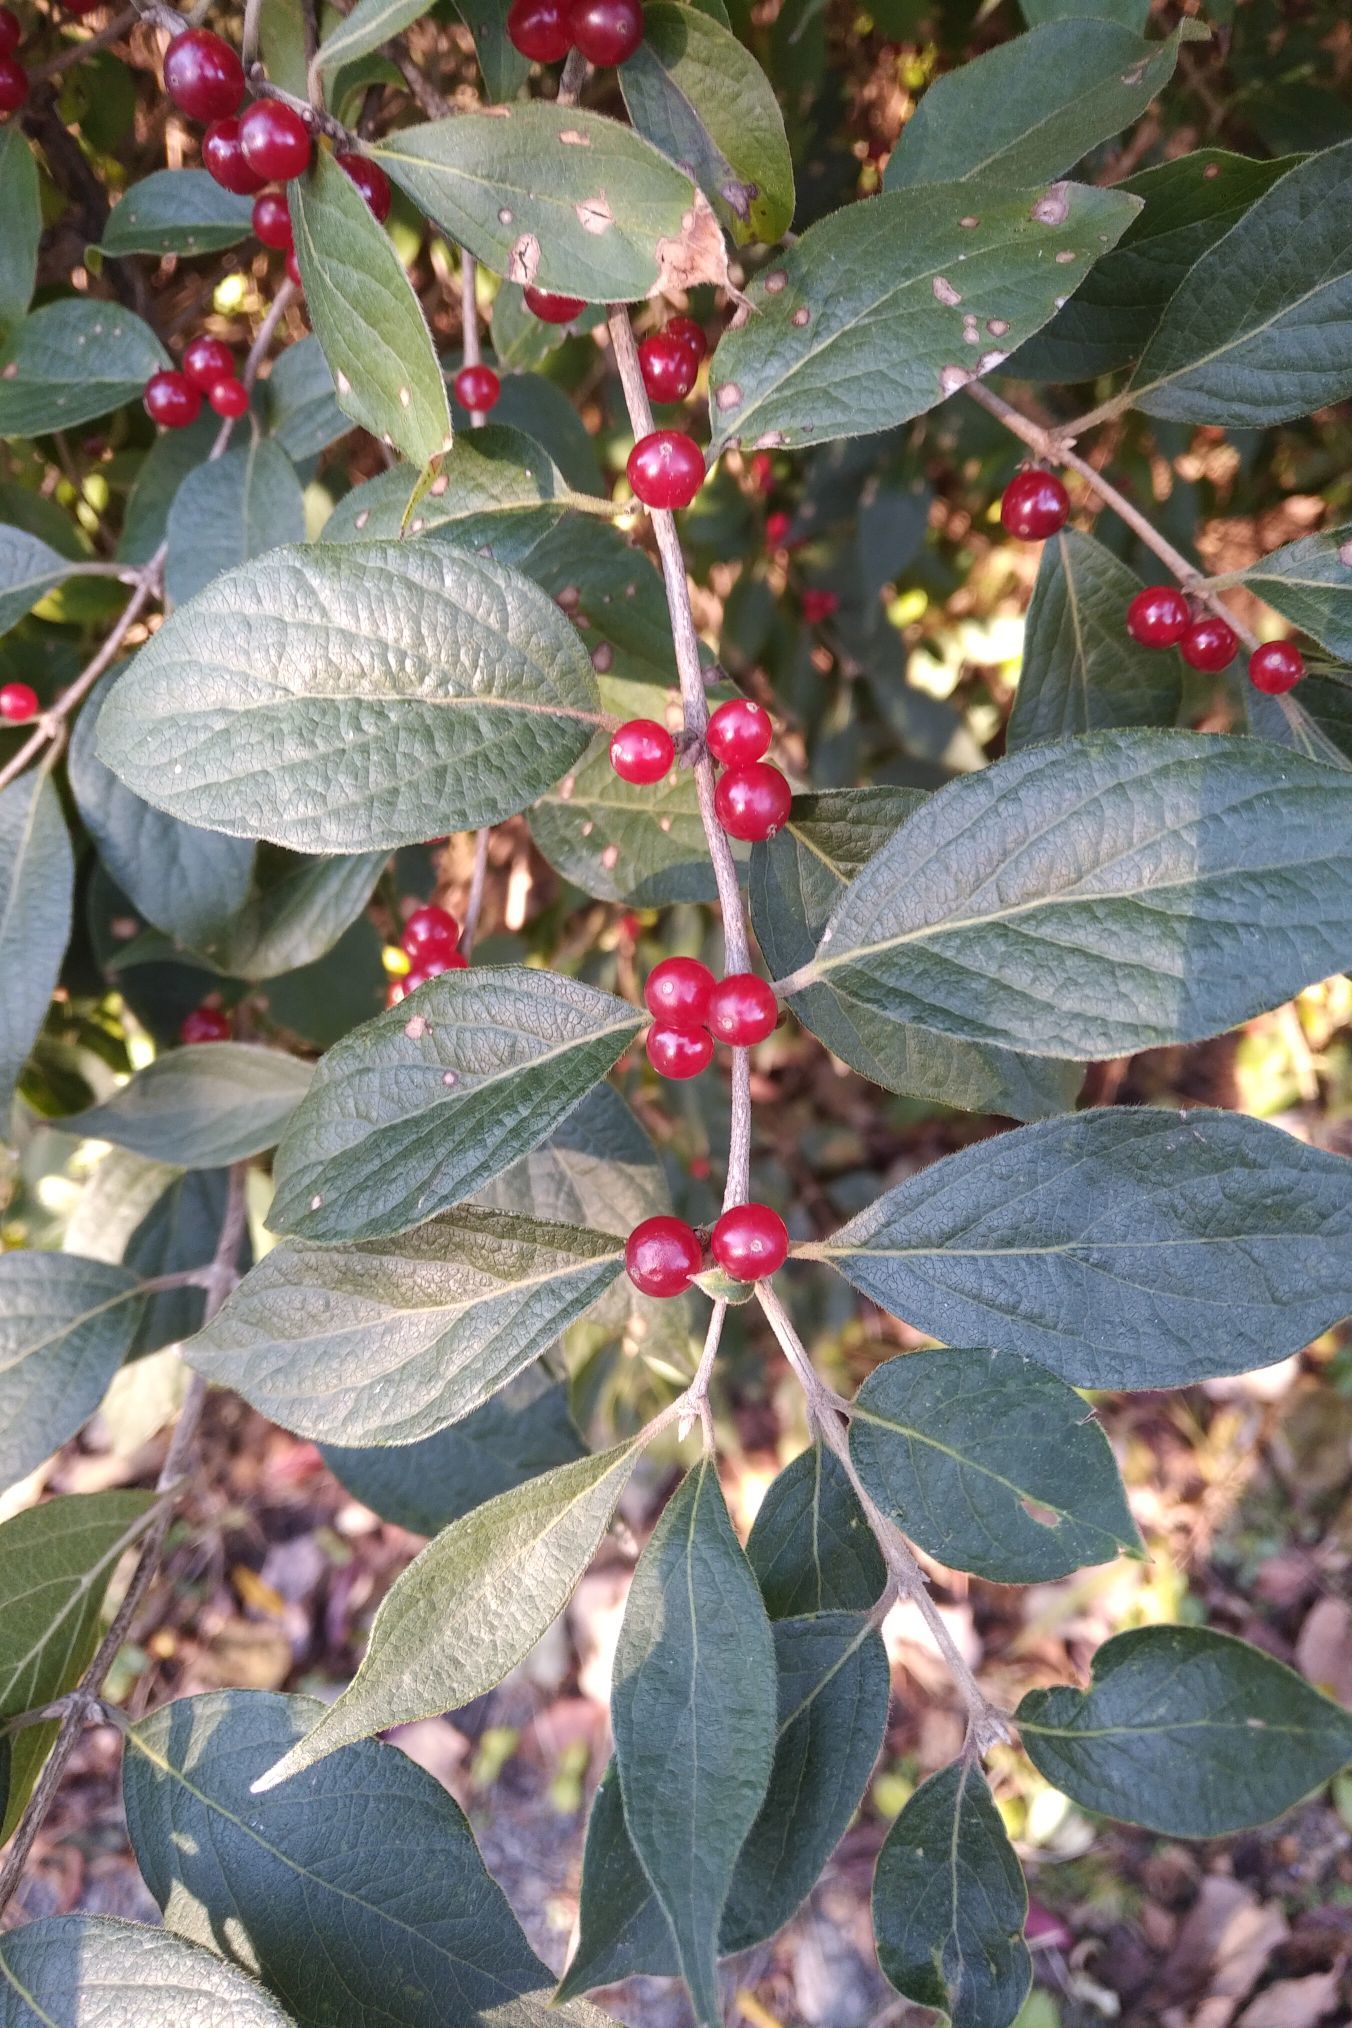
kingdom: Plantae
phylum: Tracheophyta
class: Magnoliopsida
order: Dipsacales
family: Caprifoliaceae
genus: Lonicera
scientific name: Lonicera maackii
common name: Amur honeysuckle
